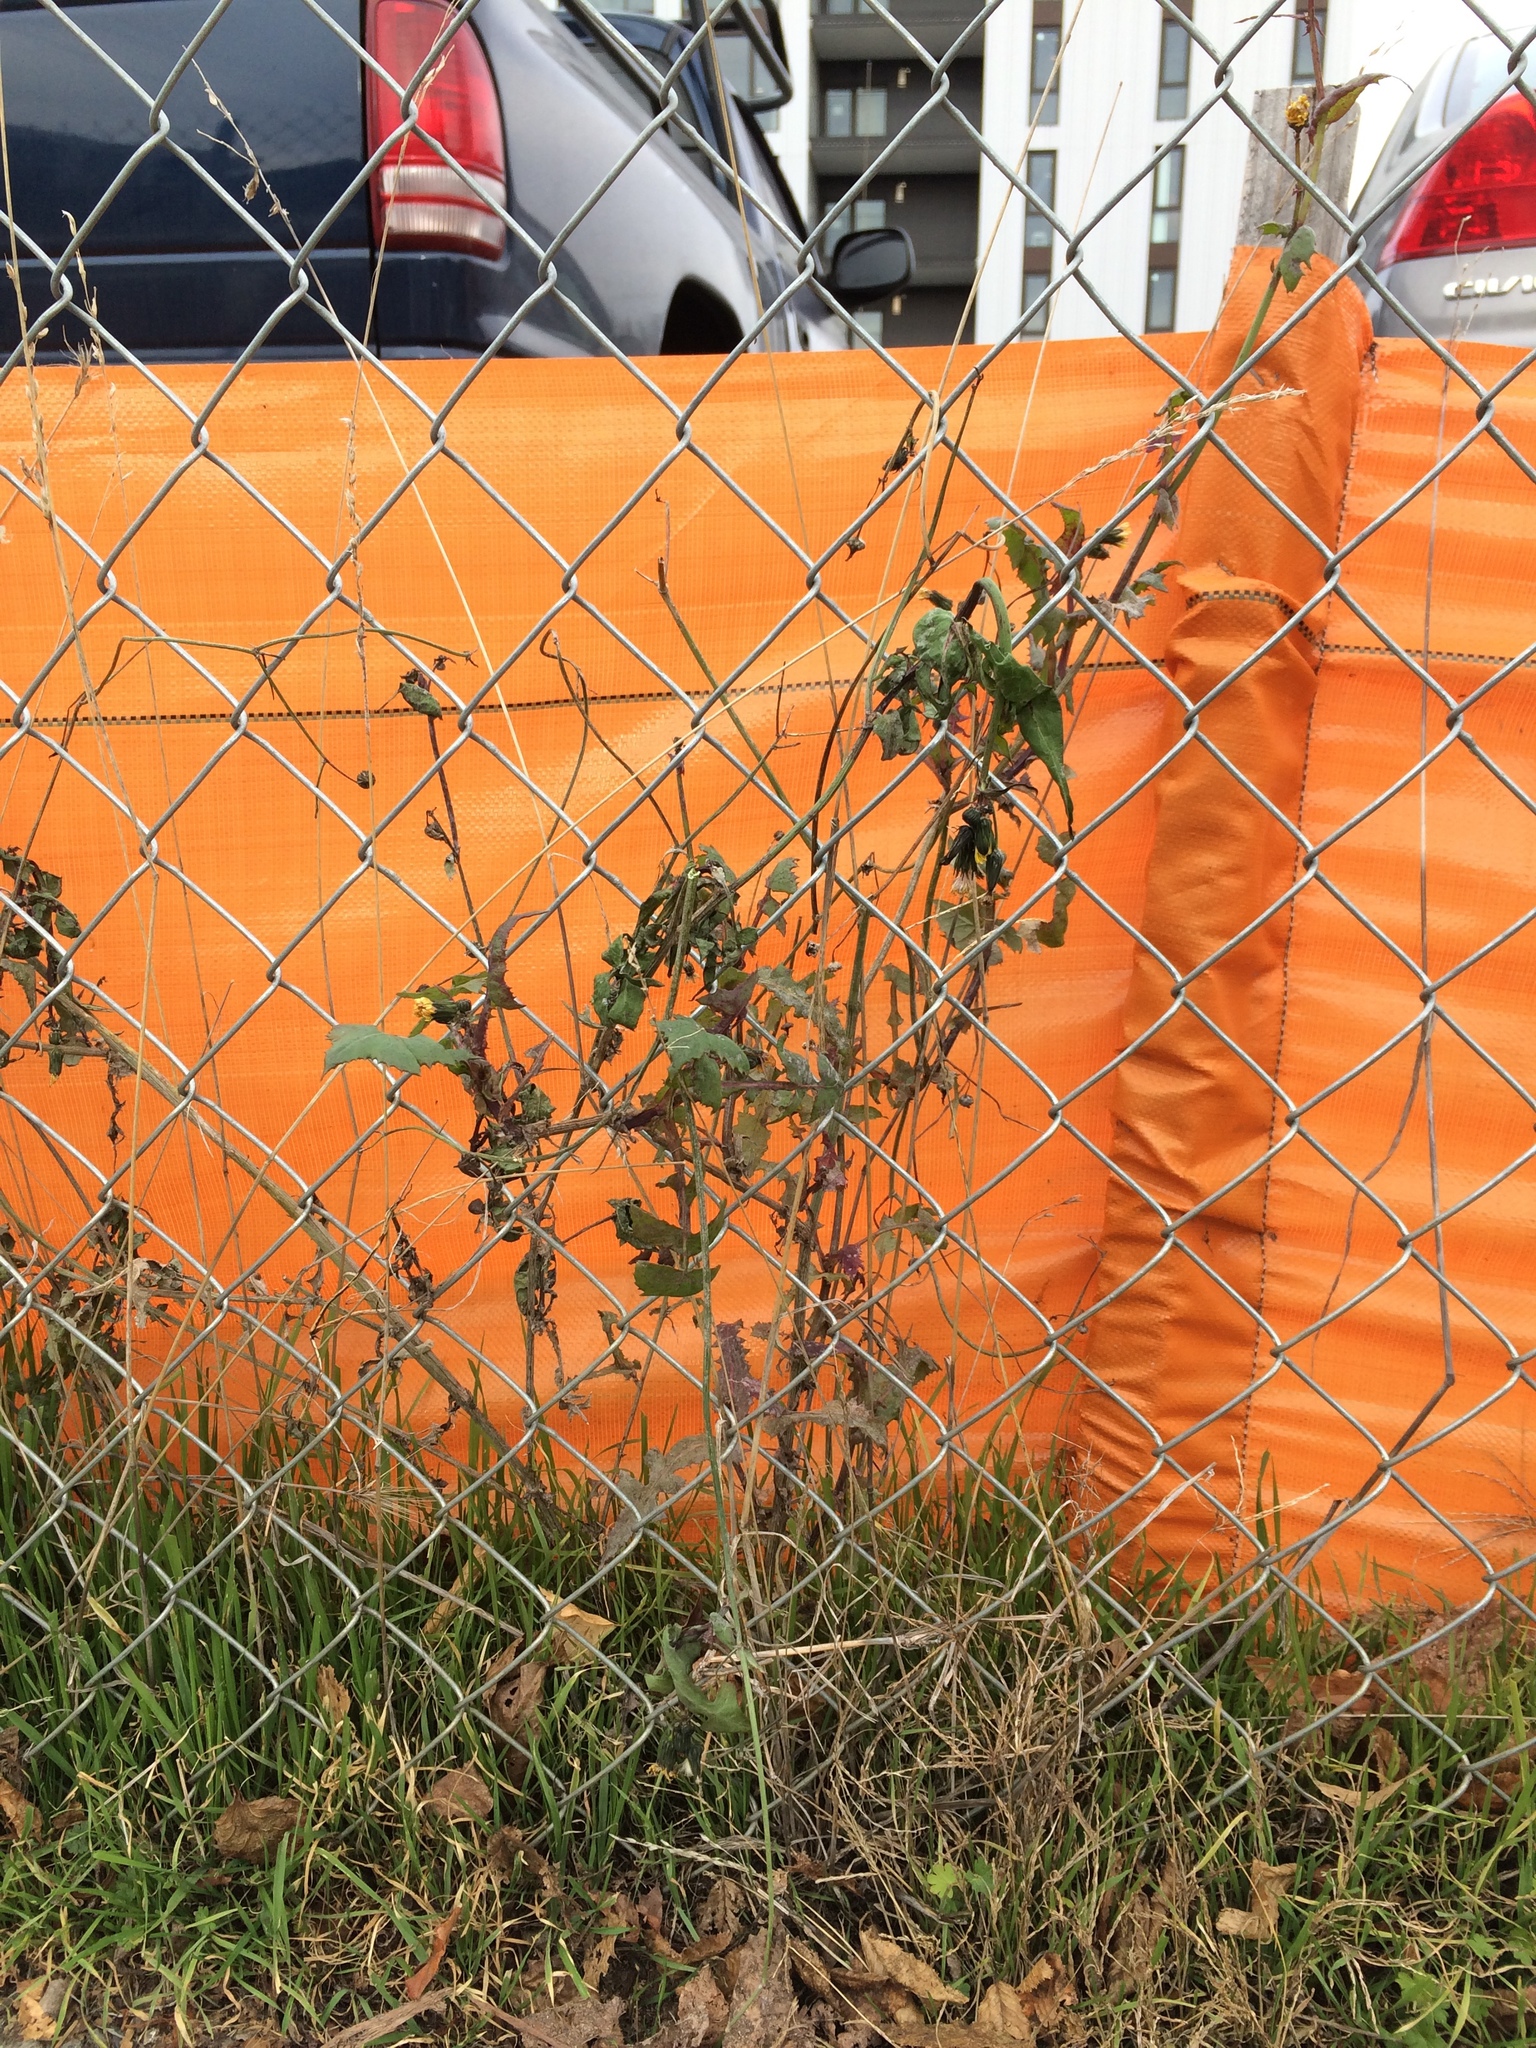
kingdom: Plantae
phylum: Tracheophyta
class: Magnoliopsida
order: Asterales
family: Asteraceae
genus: Sonchus
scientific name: Sonchus oleraceus
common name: Common sowthistle
